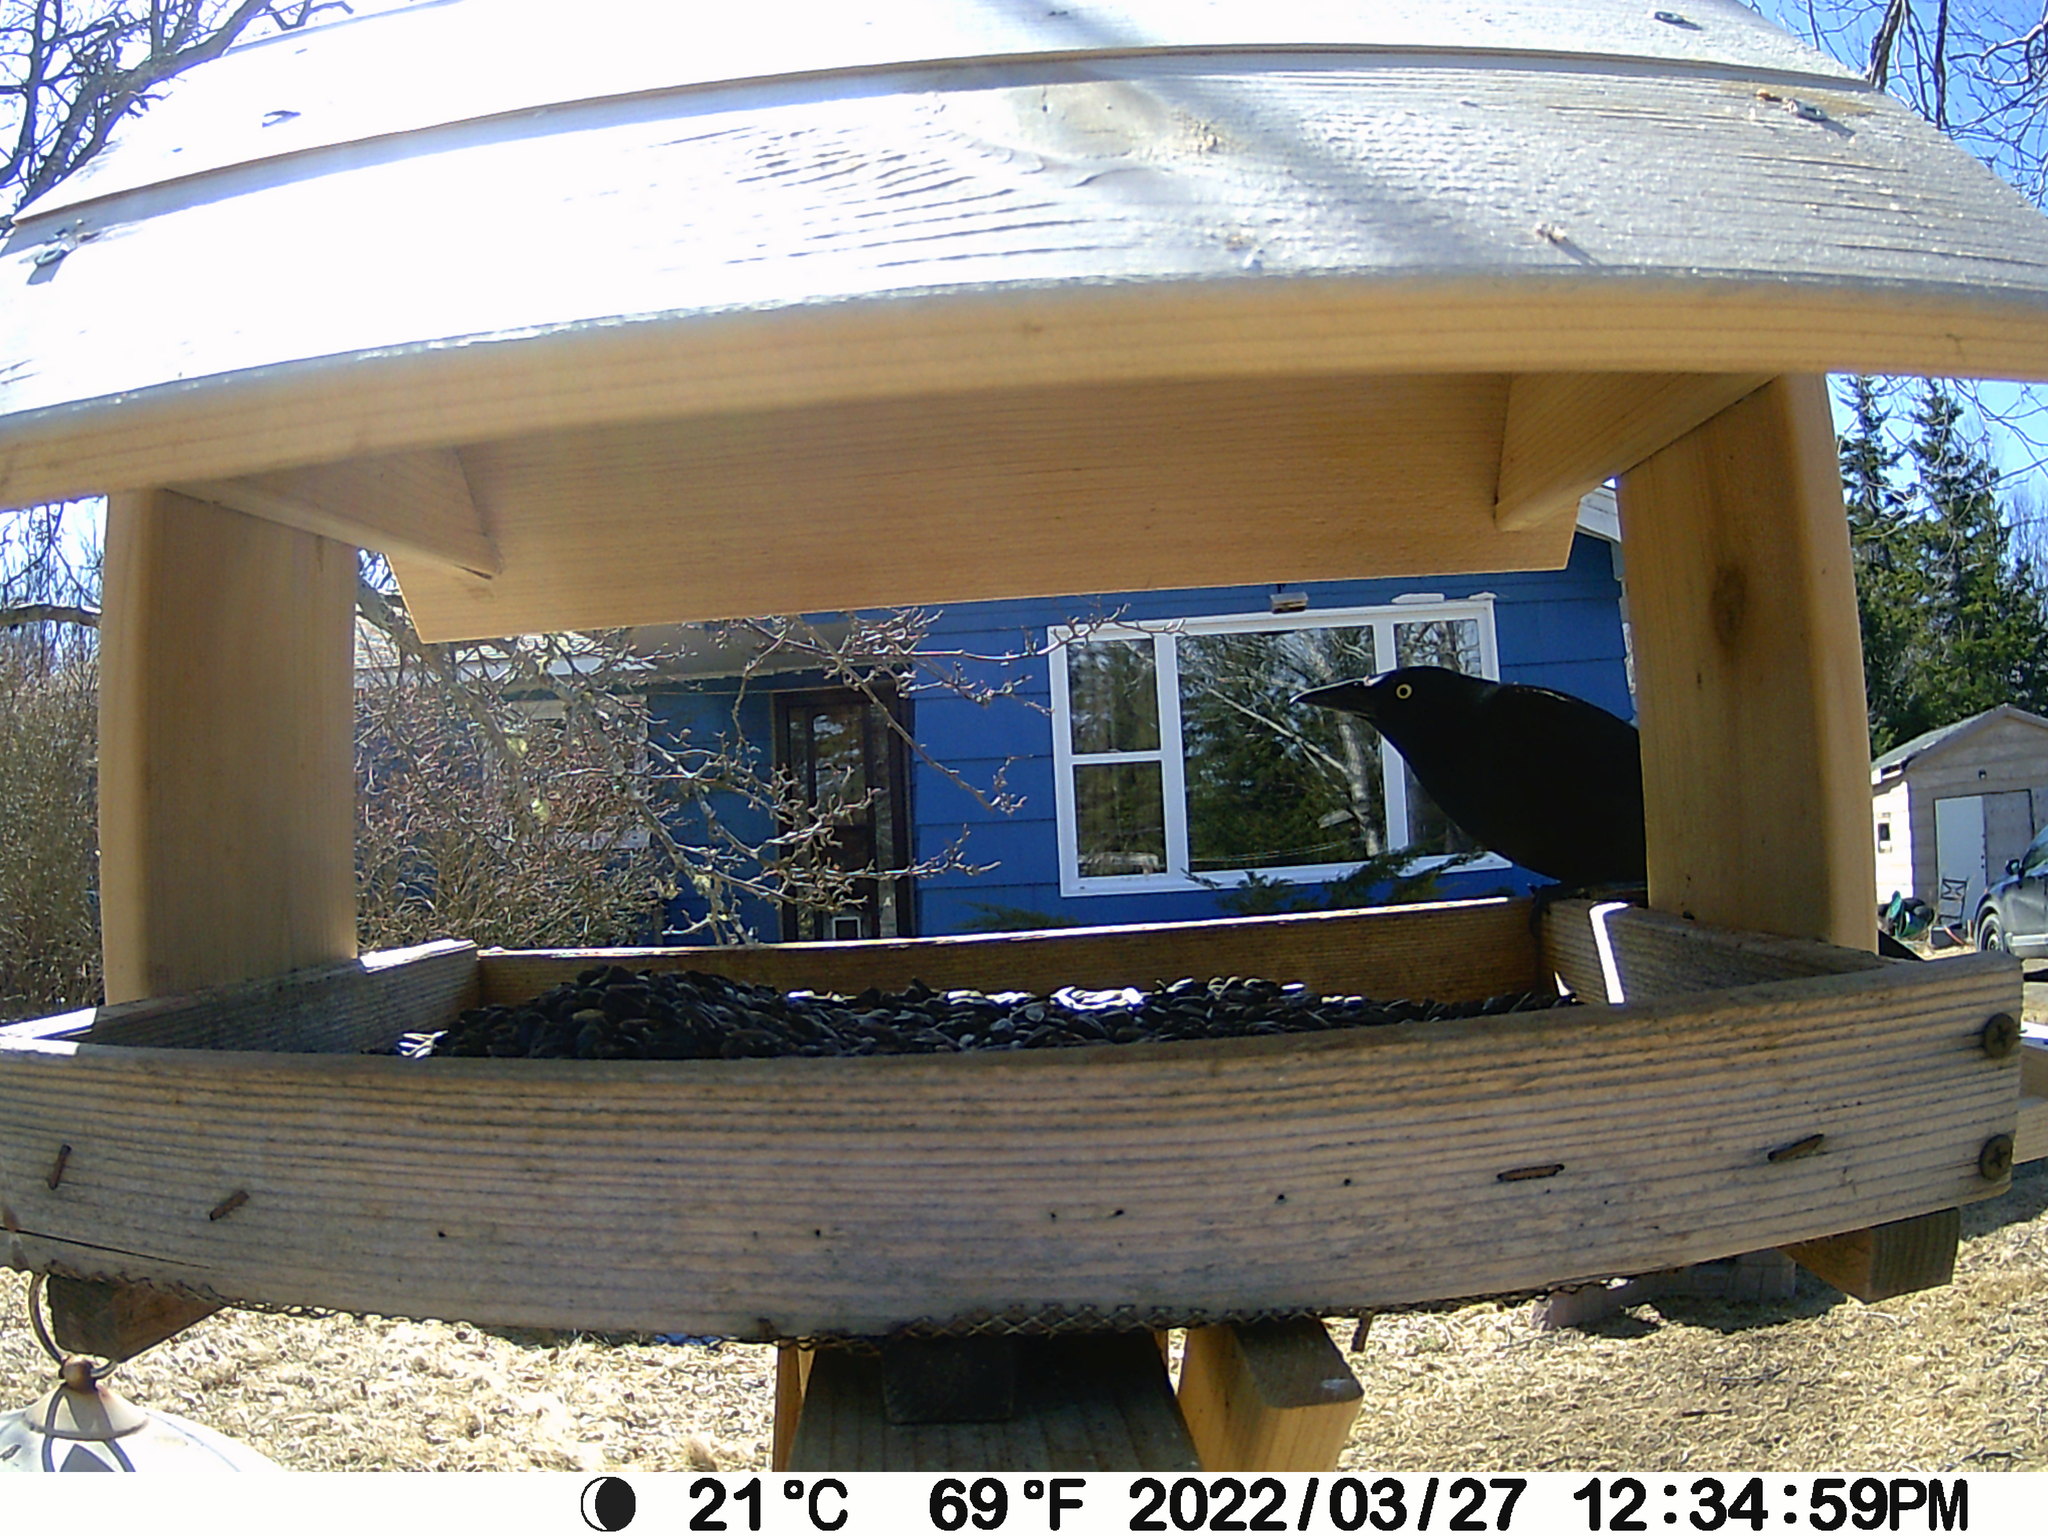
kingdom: Animalia
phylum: Chordata
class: Aves
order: Passeriformes
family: Icteridae
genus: Quiscalus
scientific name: Quiscalus quiscula
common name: Common grackle
